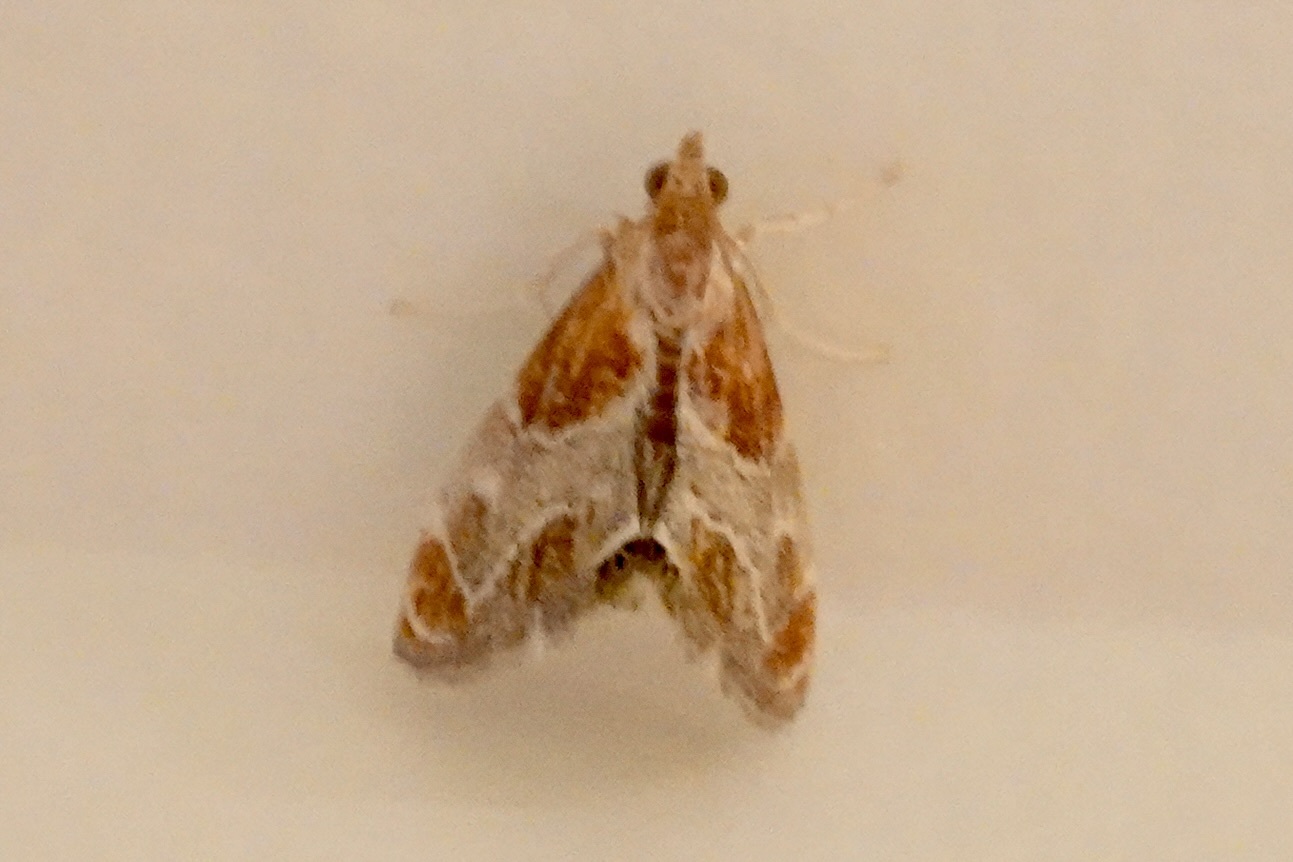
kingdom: Animalia
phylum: Arthropoda
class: Insecta
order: Lepidoptera
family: Crambidae
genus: Chalcoela
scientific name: Chalcoela pegasalis
